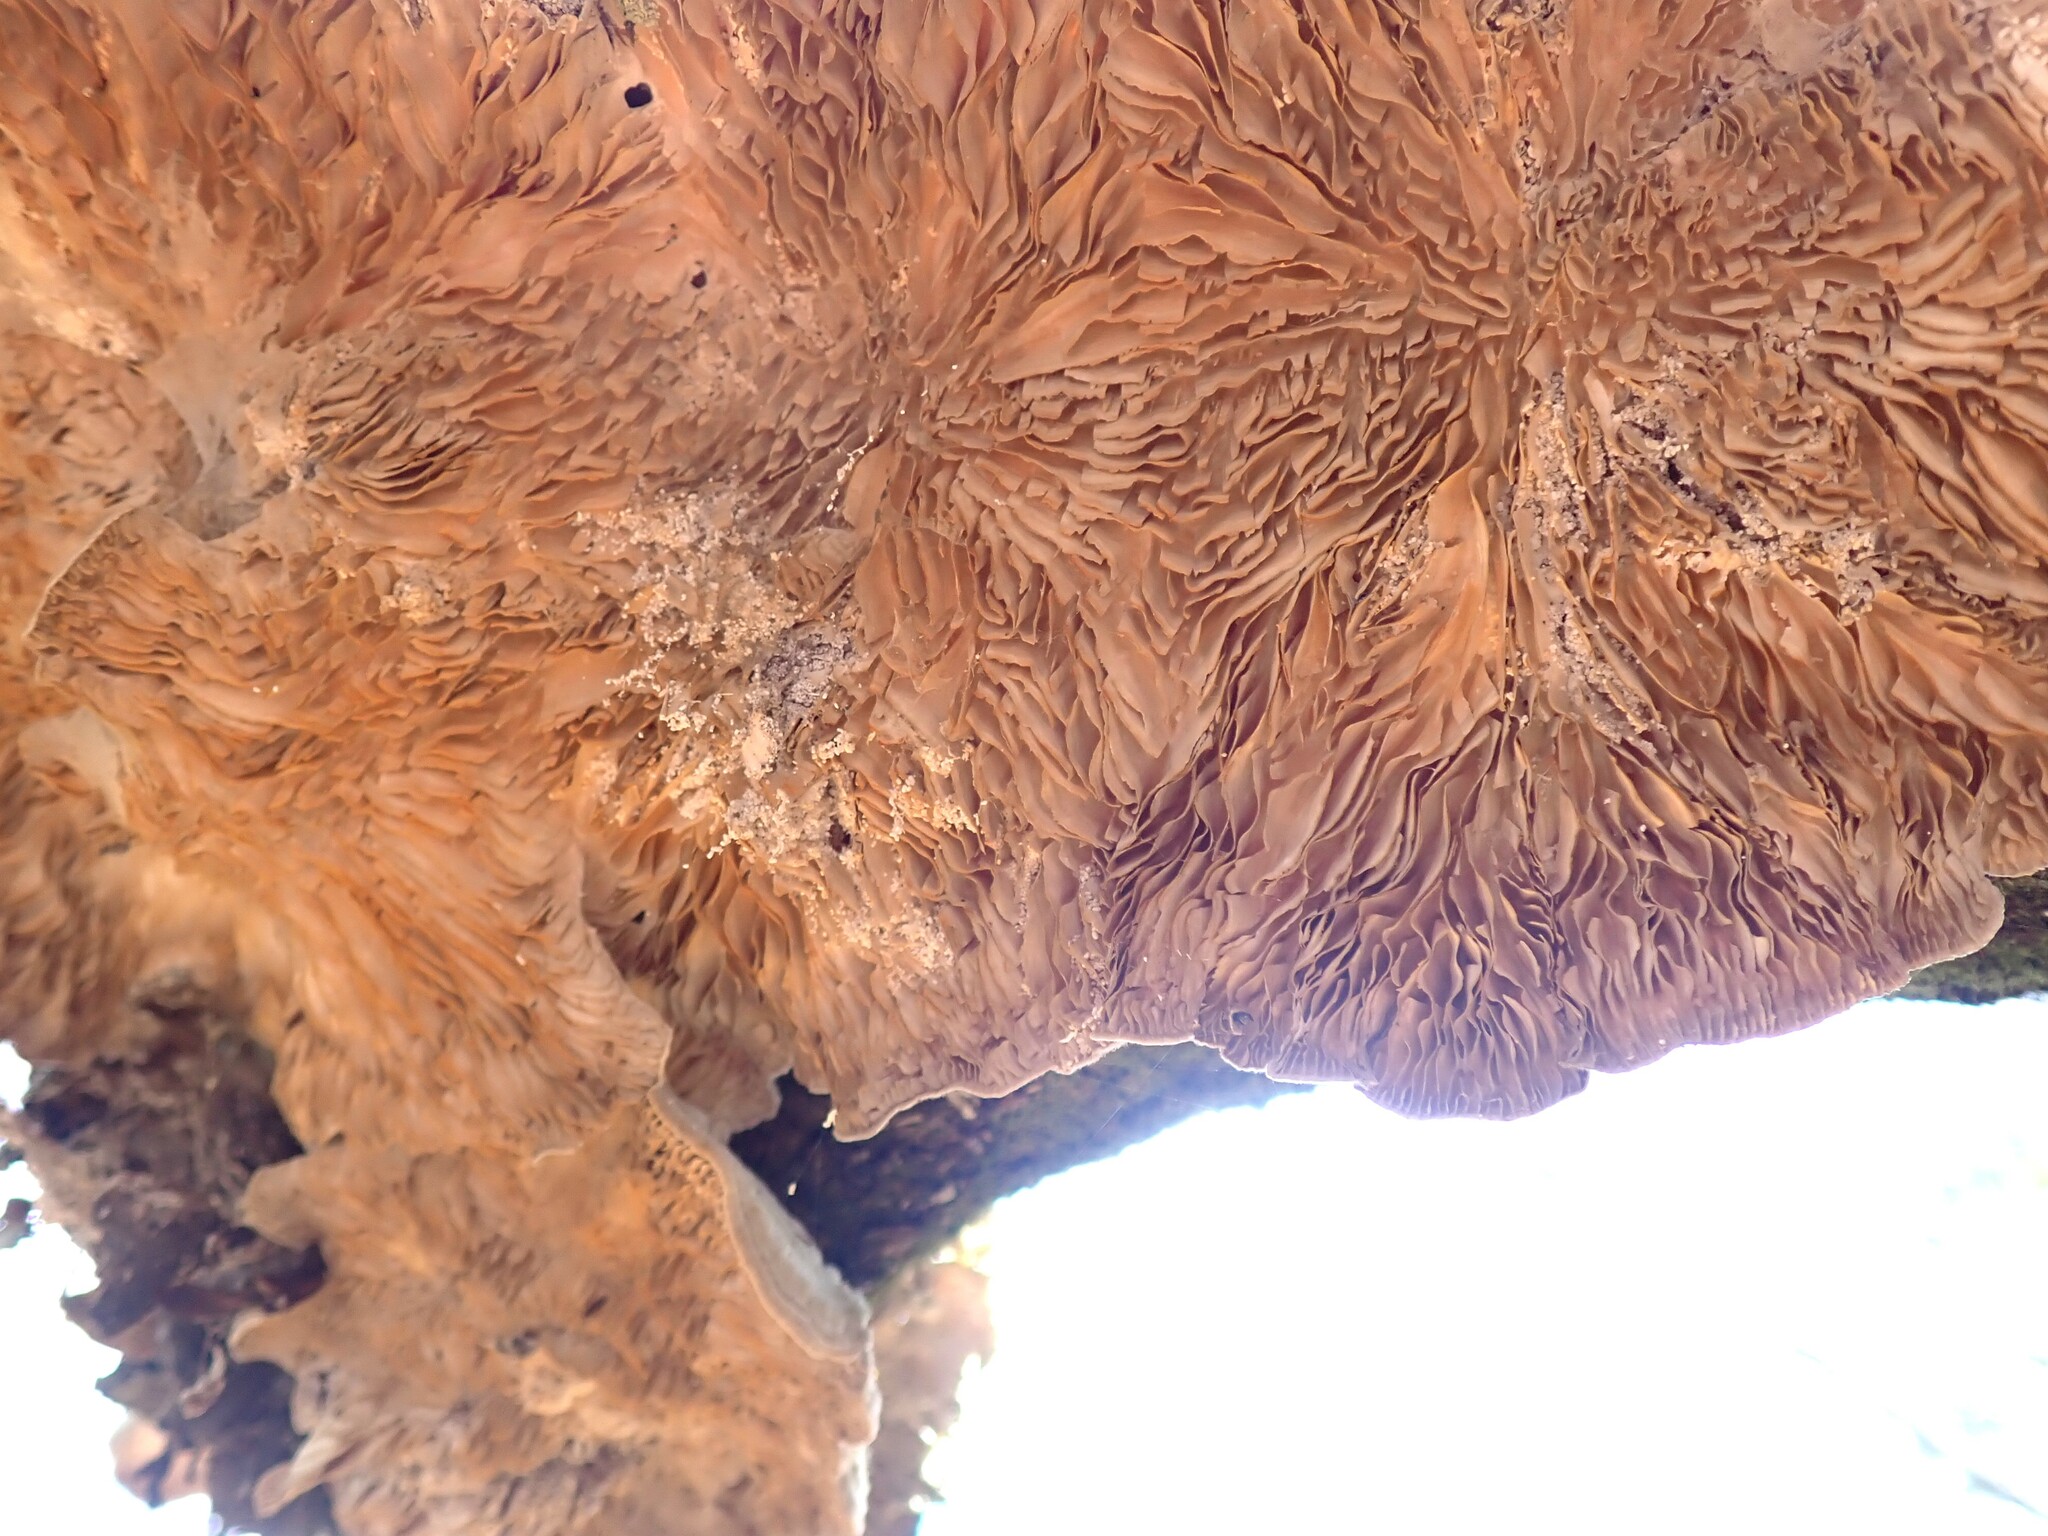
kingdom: Fungi
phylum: Basidiomycota
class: Agaricomycetes
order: Polyporales
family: Polyporaceae
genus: Lenzites
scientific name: Lenzites betulinus
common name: Birch mazegill
